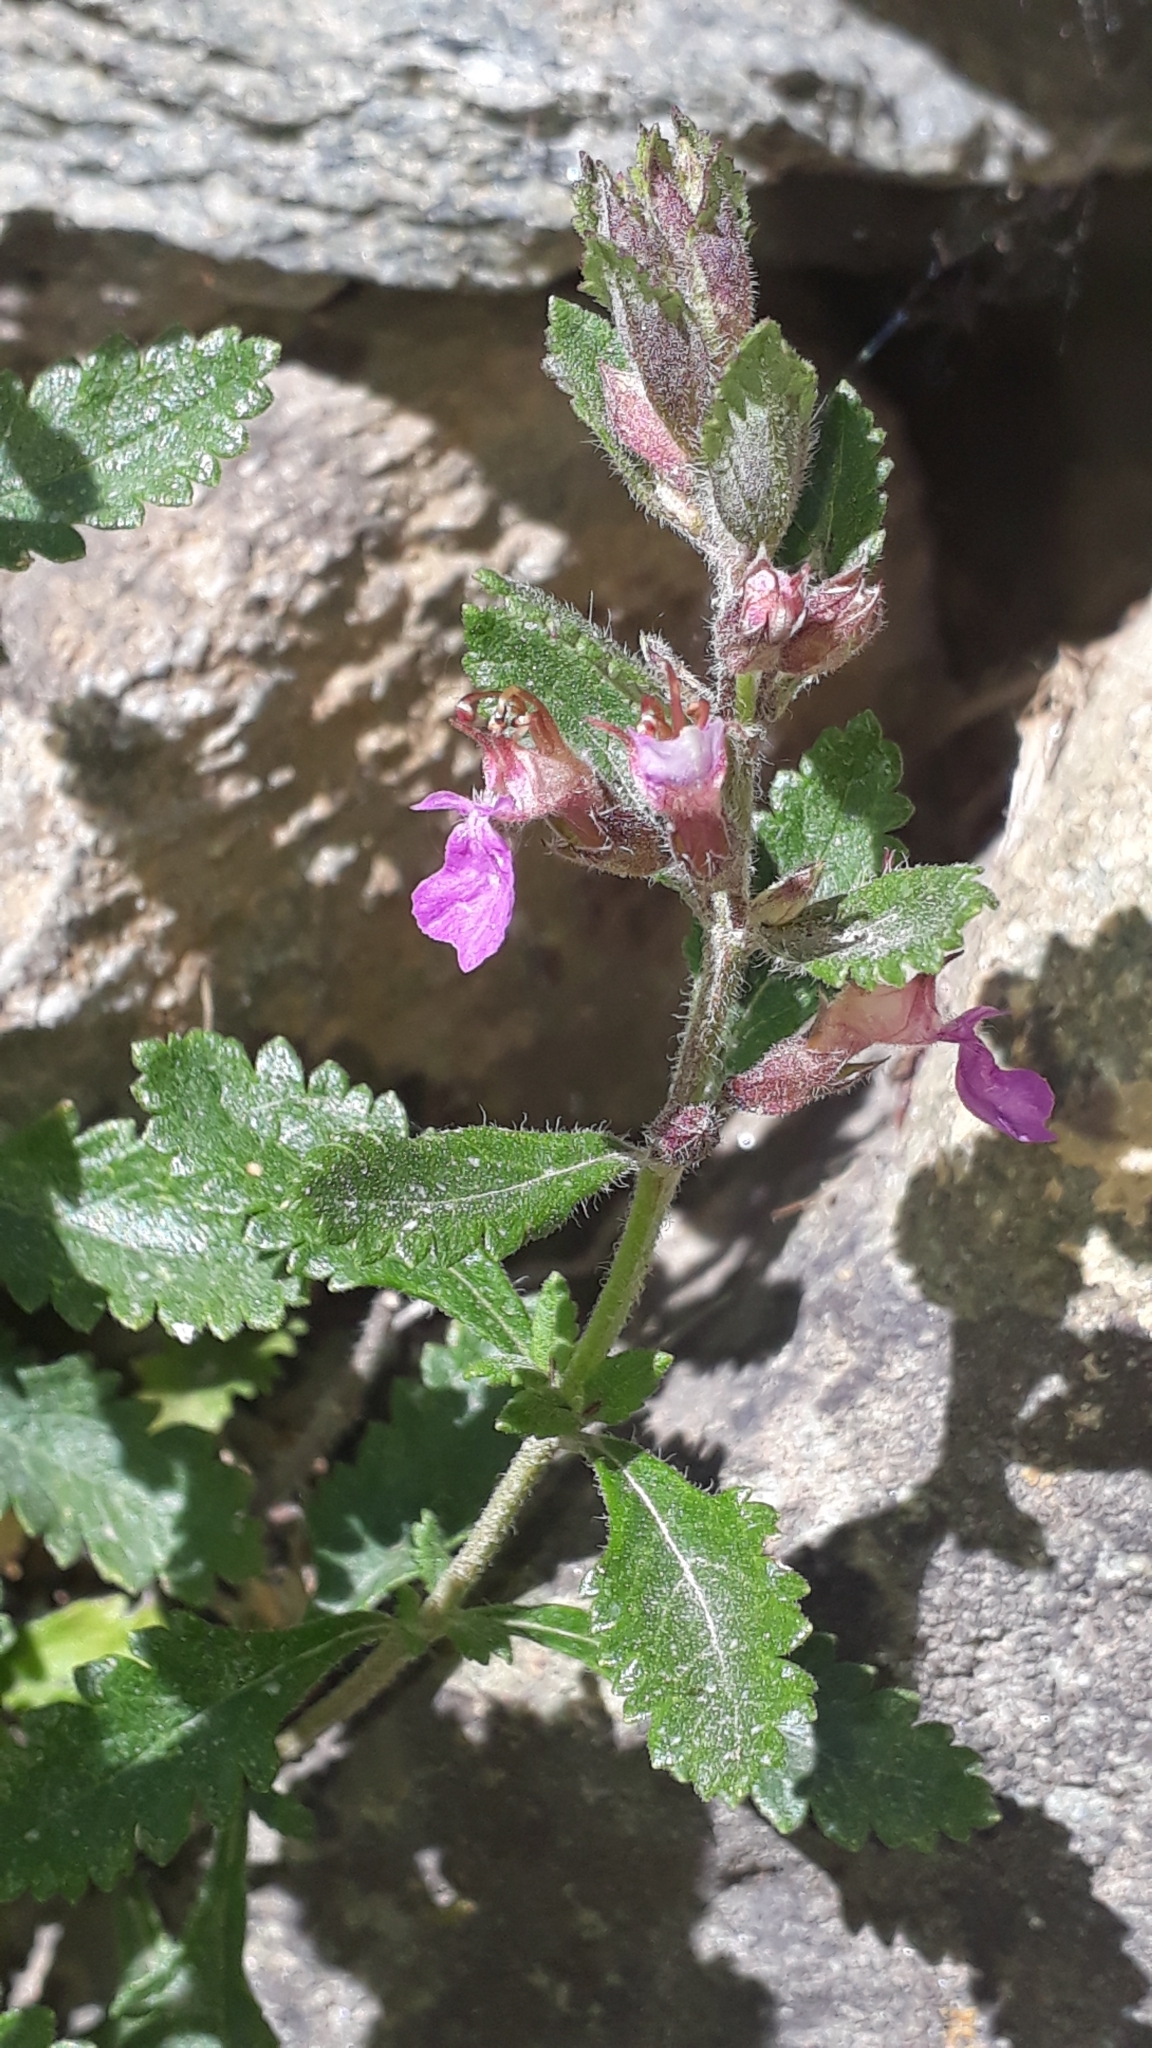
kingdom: Plantae
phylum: Tracheophyta
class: Magnoliopsida
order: Lamiales
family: Lamiaceae
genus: Teucrium
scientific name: Teucrium chamaedrys
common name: Wall germander
